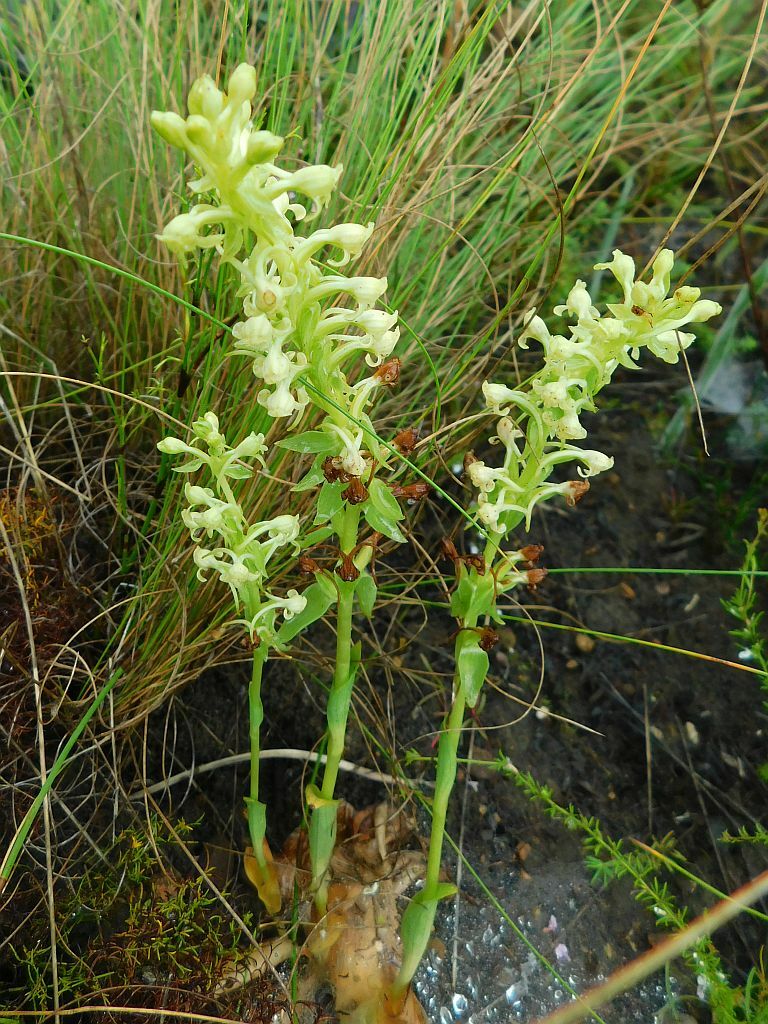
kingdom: Plantae
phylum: Tracheophyta
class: Liliopsida
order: Asparagales
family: Orchidaceae
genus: Satyrium
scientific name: Satyrium humile
